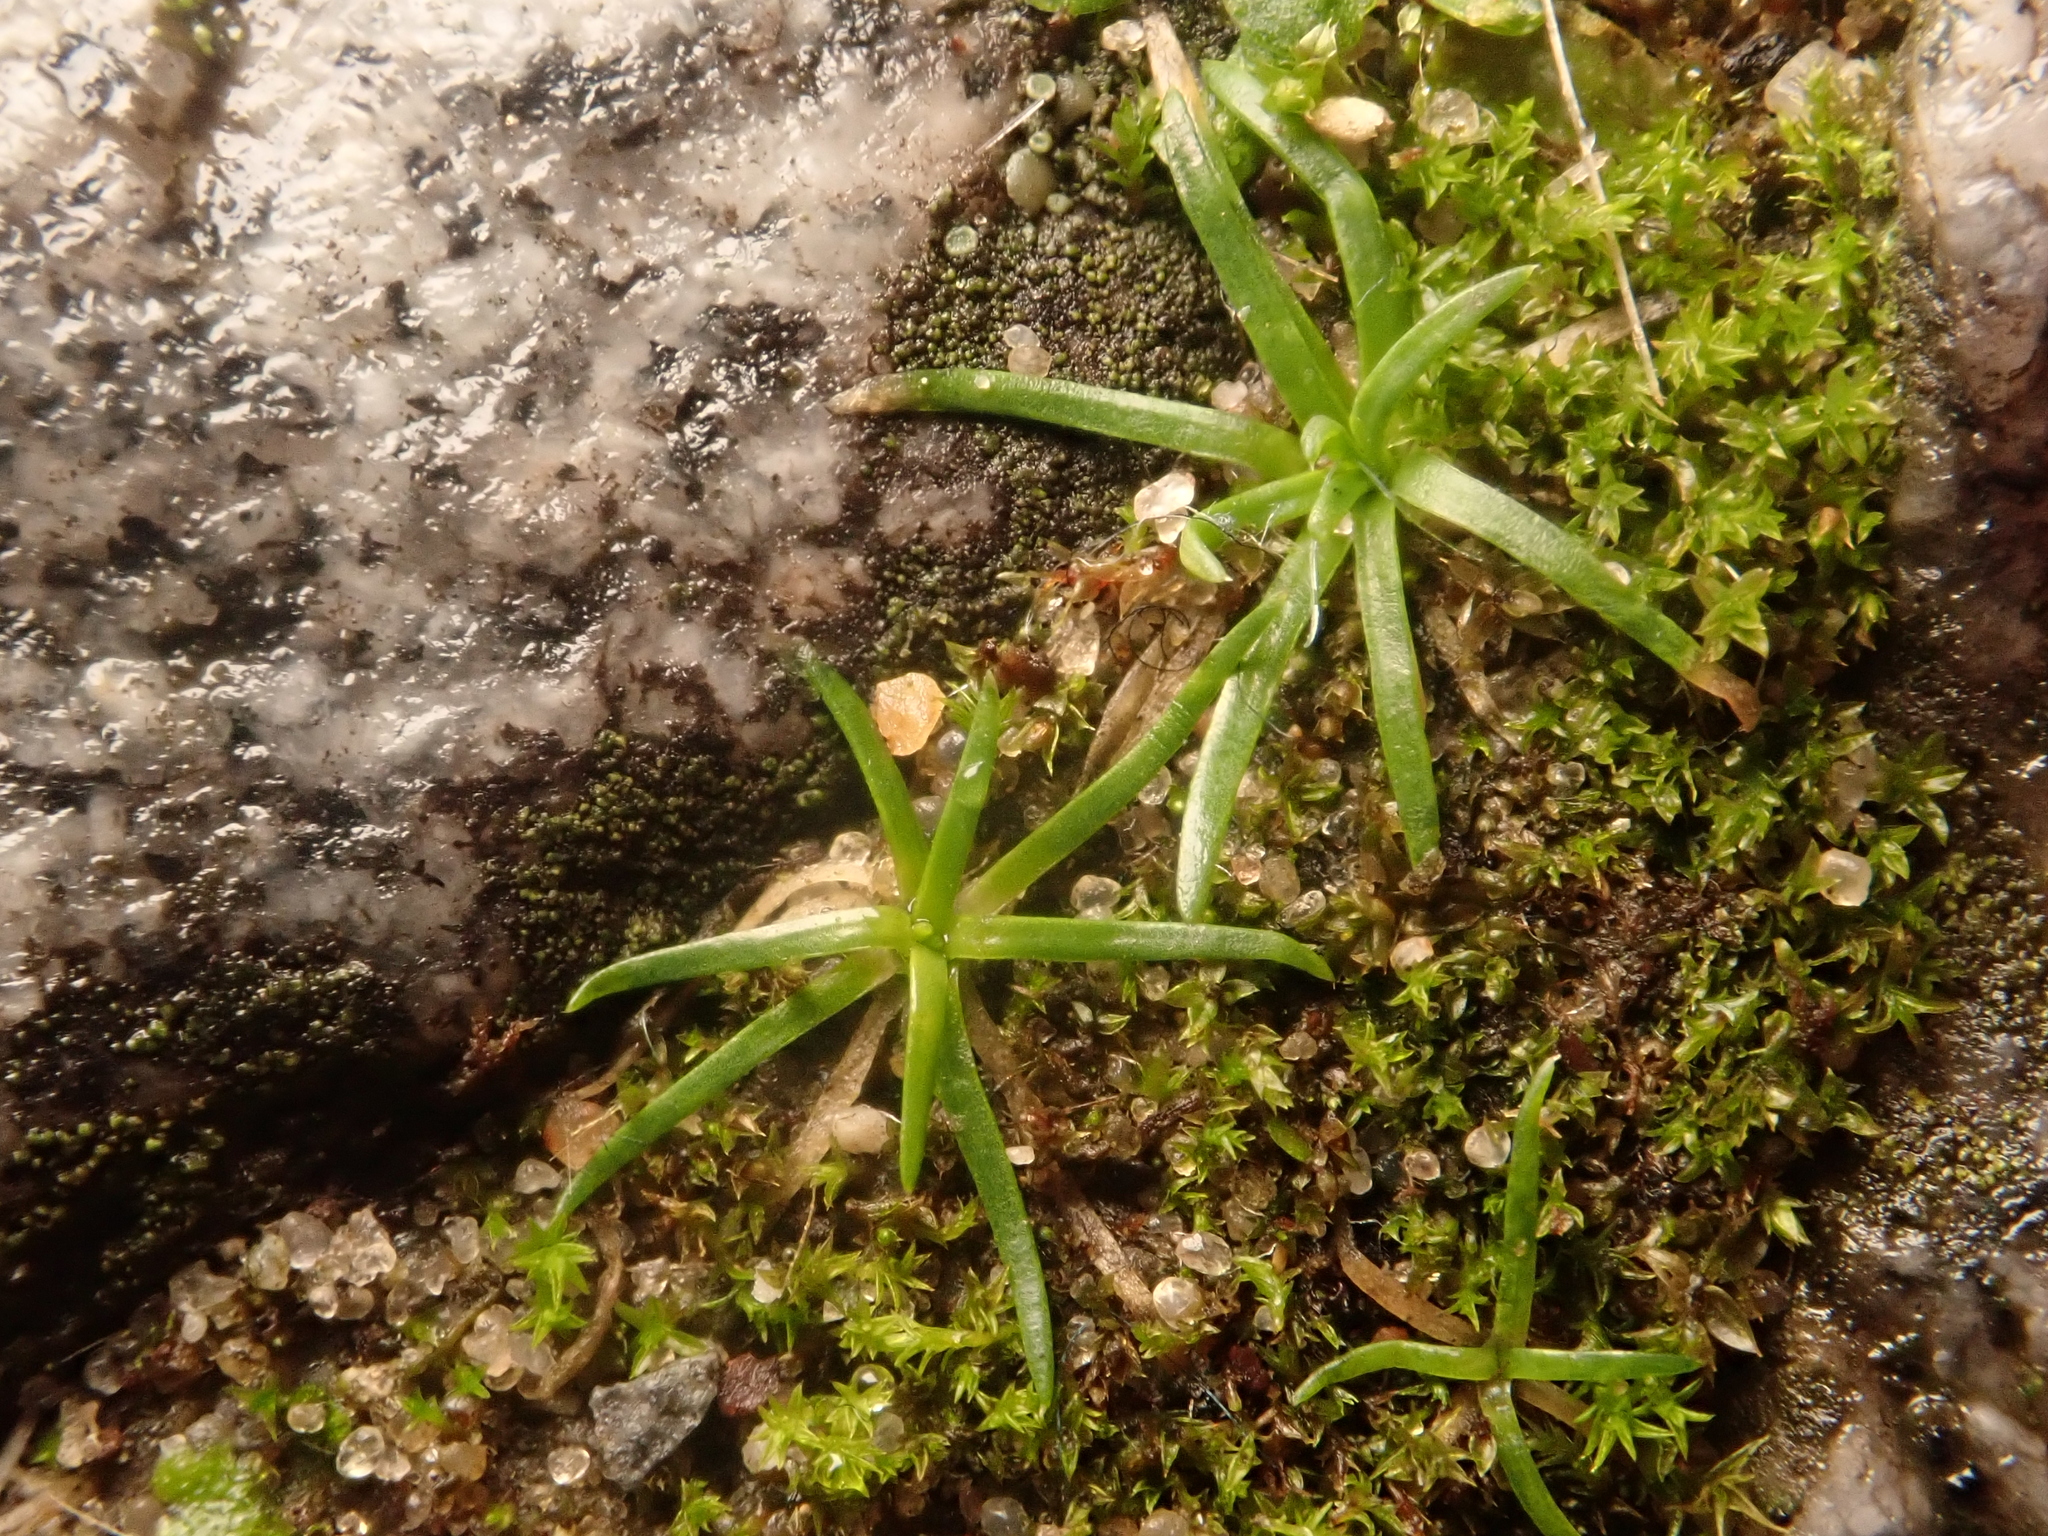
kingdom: Plantae
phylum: Tracheophyta
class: Magnoliopsida
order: Caryophyllales
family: Caryophyllaceae
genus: Sagina
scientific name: Sagina procumbens
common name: Procumbent pearlwort
